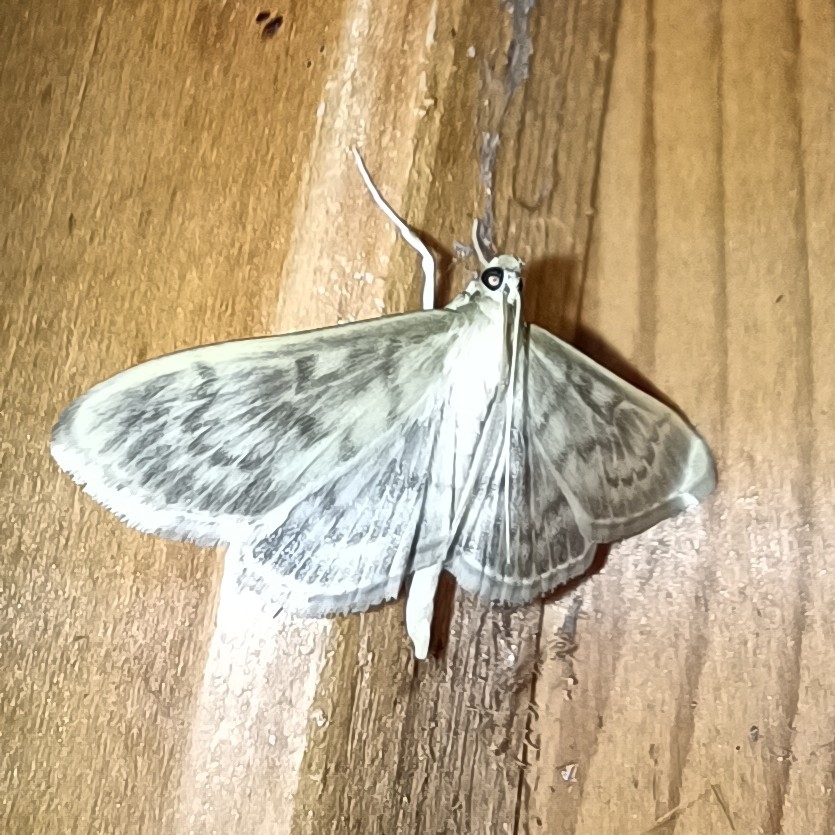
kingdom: Animalia
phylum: Arthropoda
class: Insecta
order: Lepidoptera
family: Crambidae
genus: Patania
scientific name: Patania ruralis
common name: Mother of pearl
